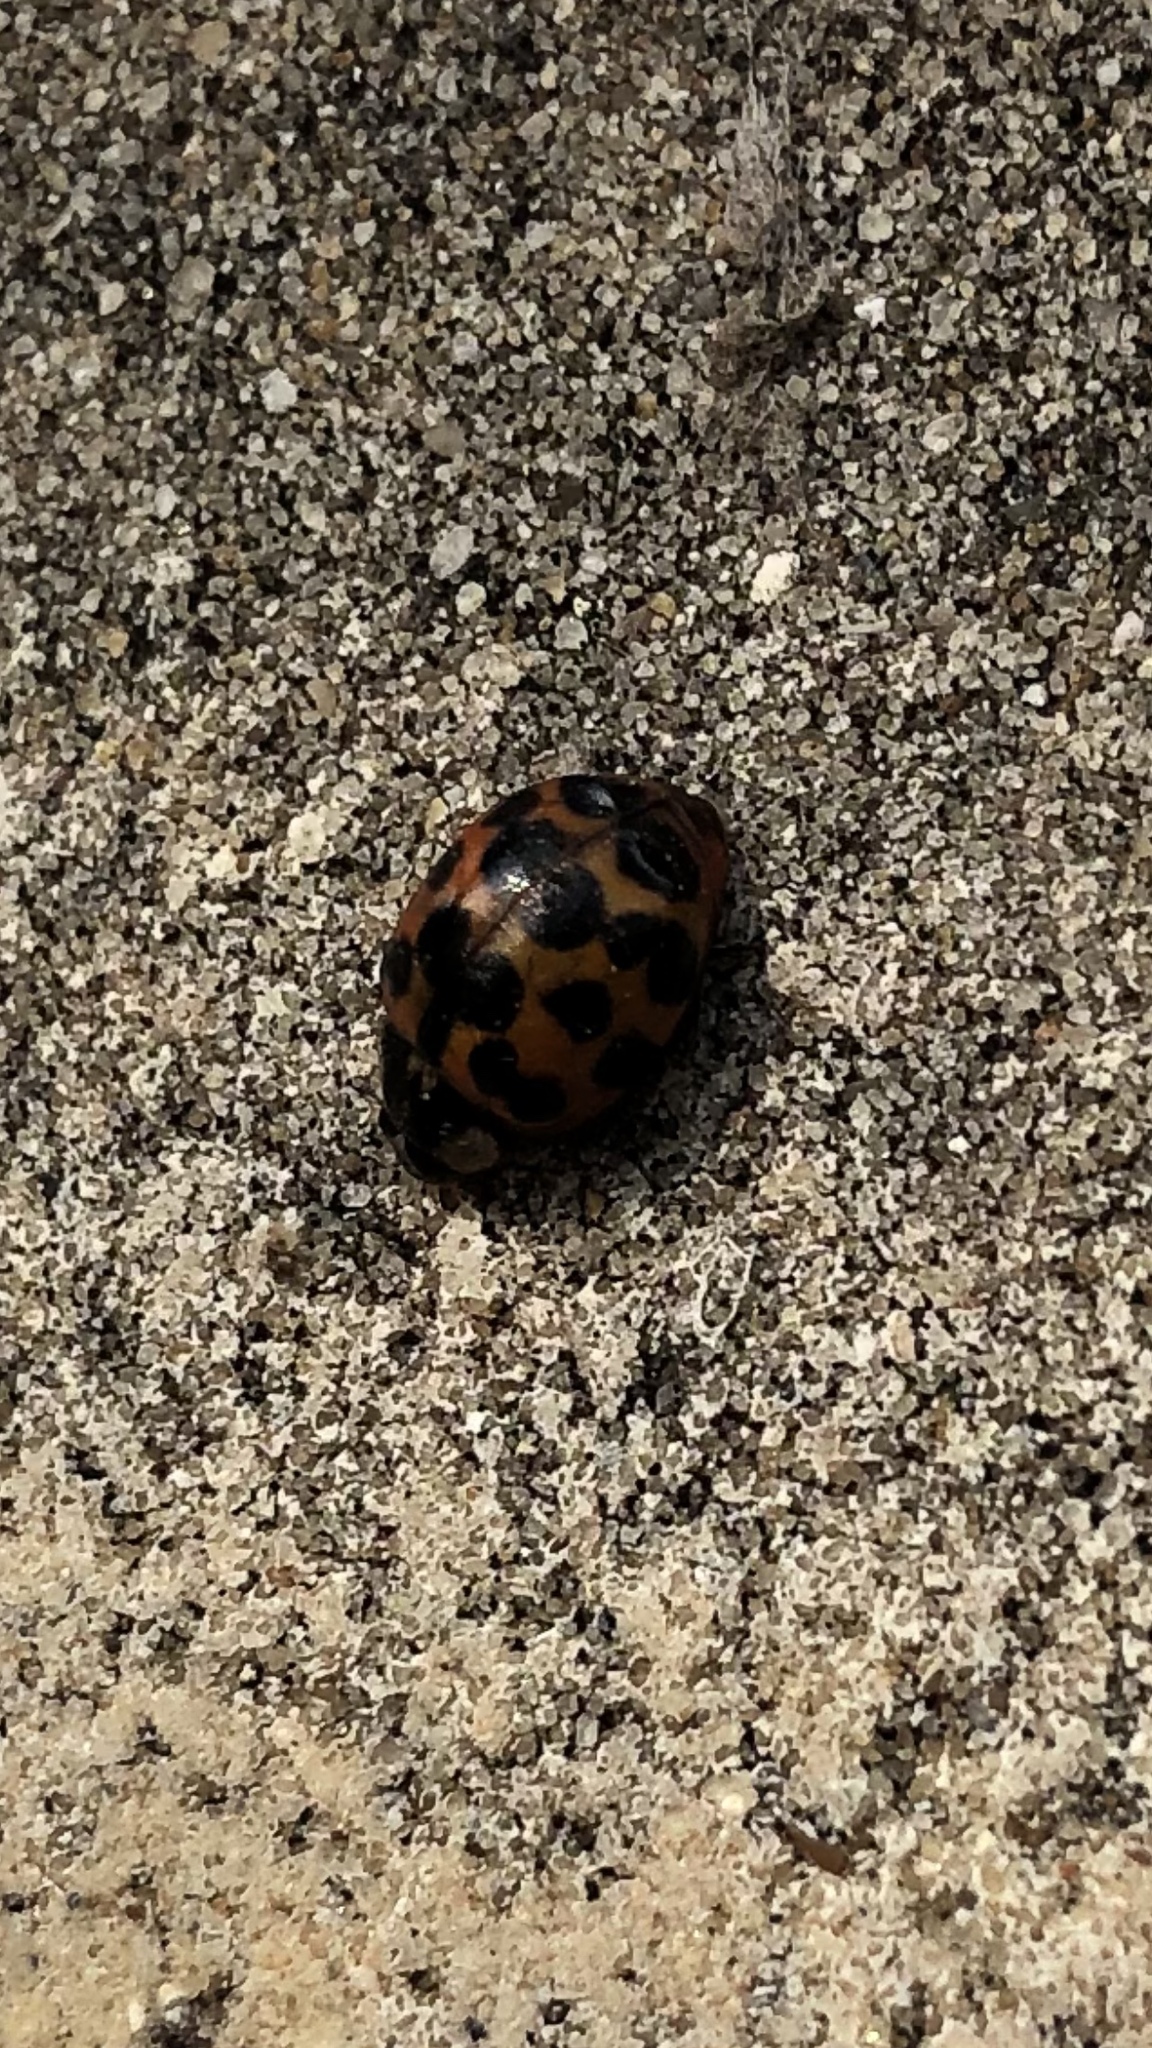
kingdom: Animalia
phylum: Arthropoda
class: Insecta
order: Coleoptera
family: Coccinellidae
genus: Harmonia
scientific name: Harmonia axyridis
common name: Harlequin ladybird
